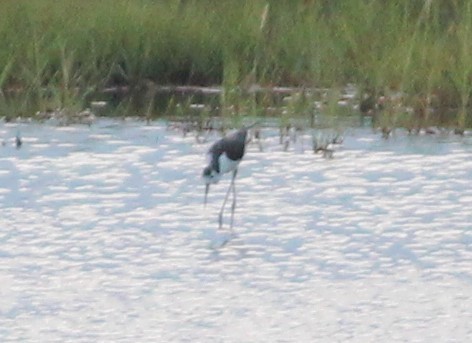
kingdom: Animalia
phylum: Chordata
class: Aves
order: Charadriiformes
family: Recurvirostridae
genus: Himantopus
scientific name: Himantopus mexicanus
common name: Black-necked stilt
